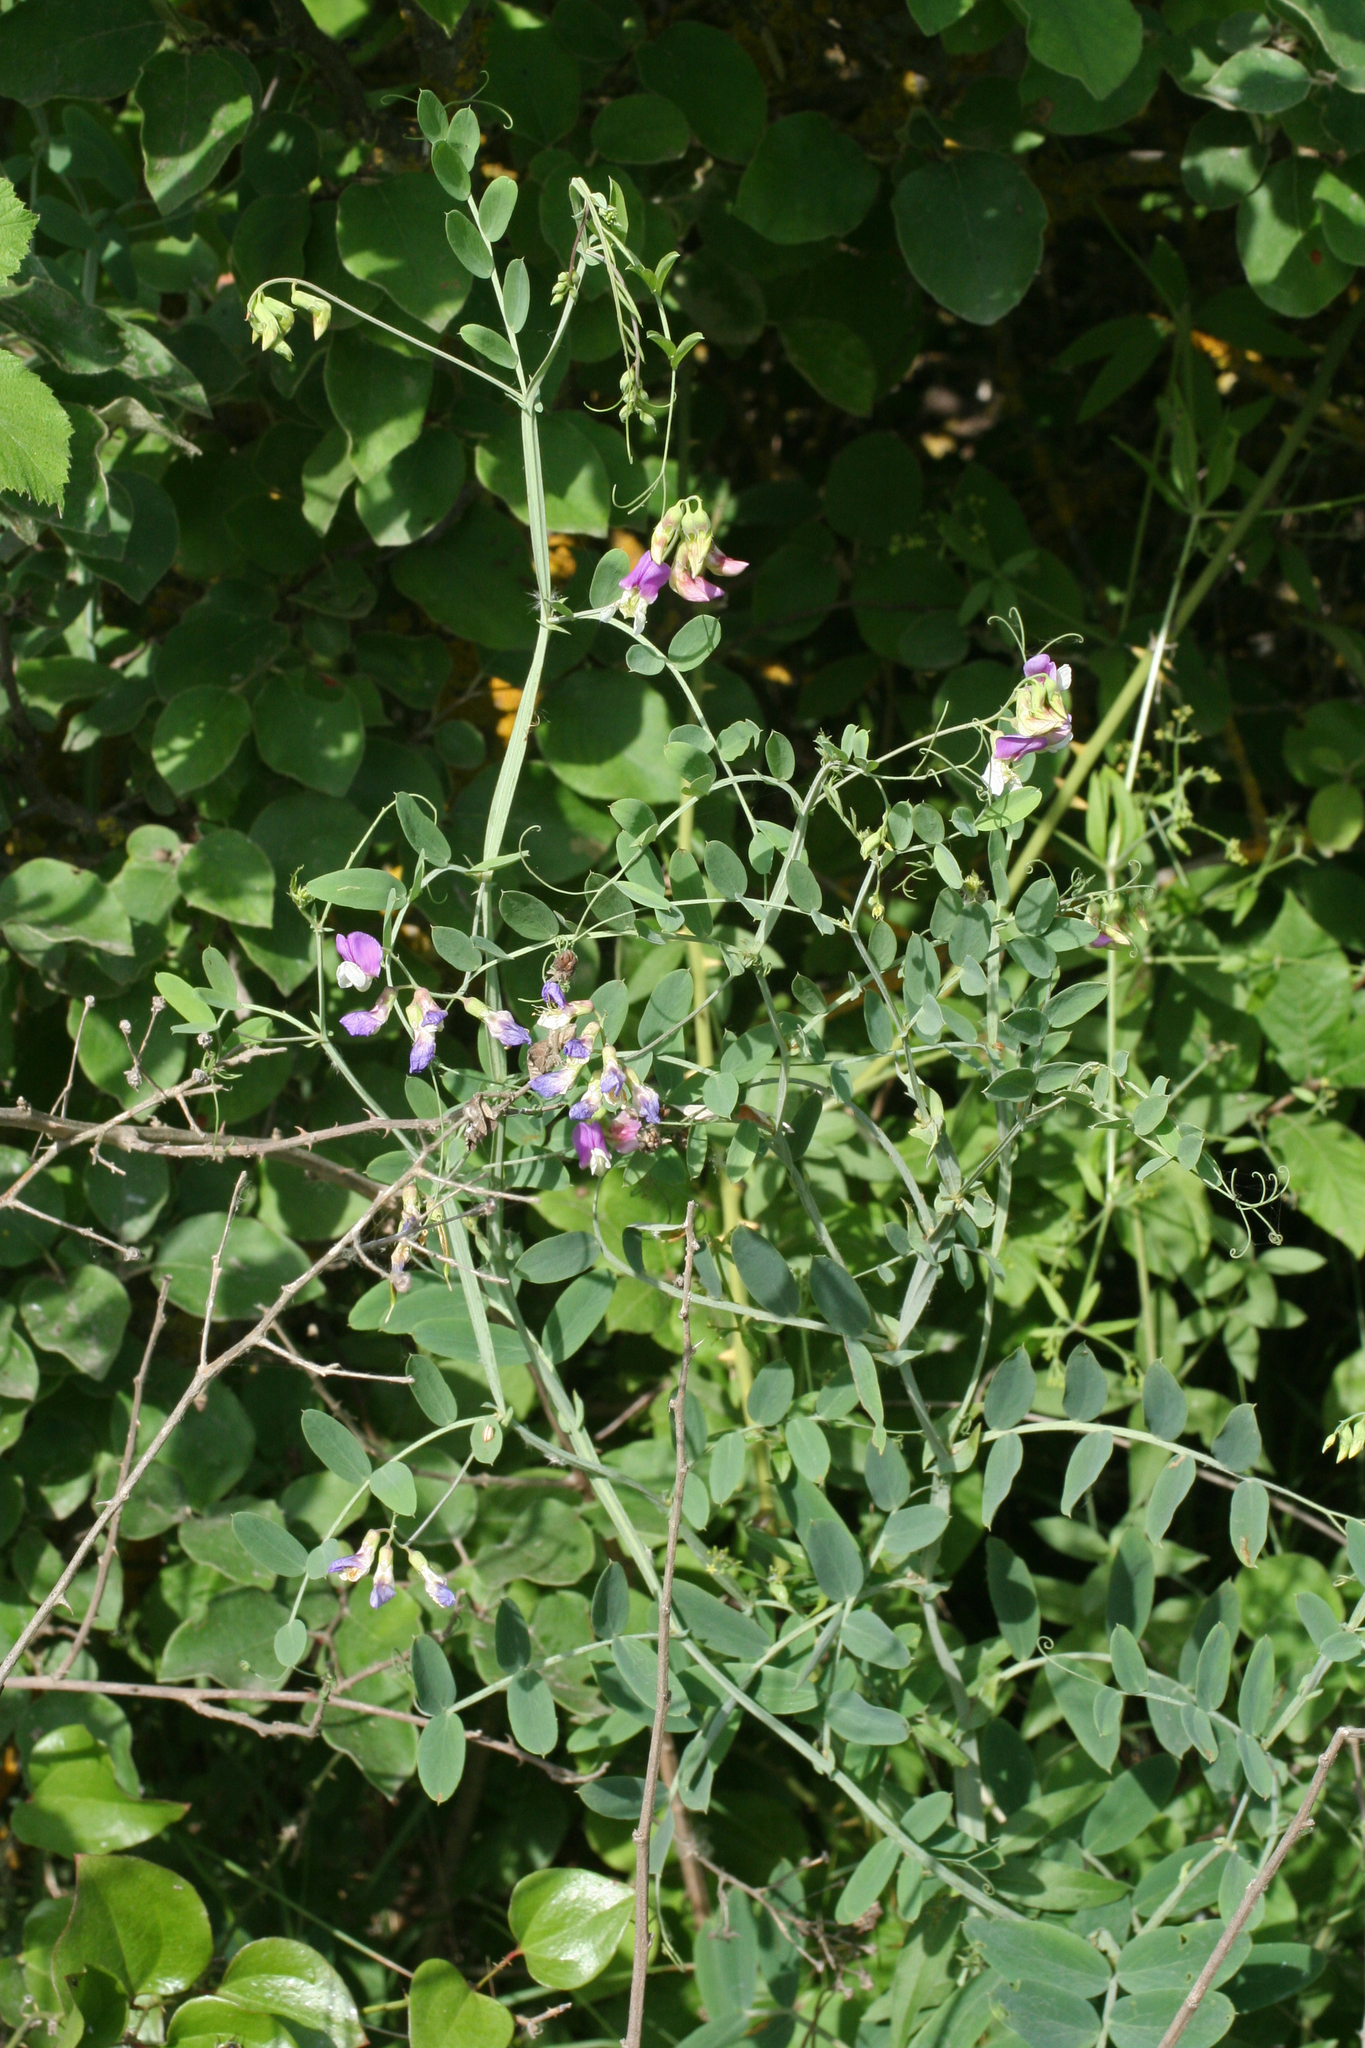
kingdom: Plantae
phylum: Tracheophyta
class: Magnoliopsida
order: Fabales
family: Fabaceae
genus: Lathyrus
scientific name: Lathyrus incurvus
